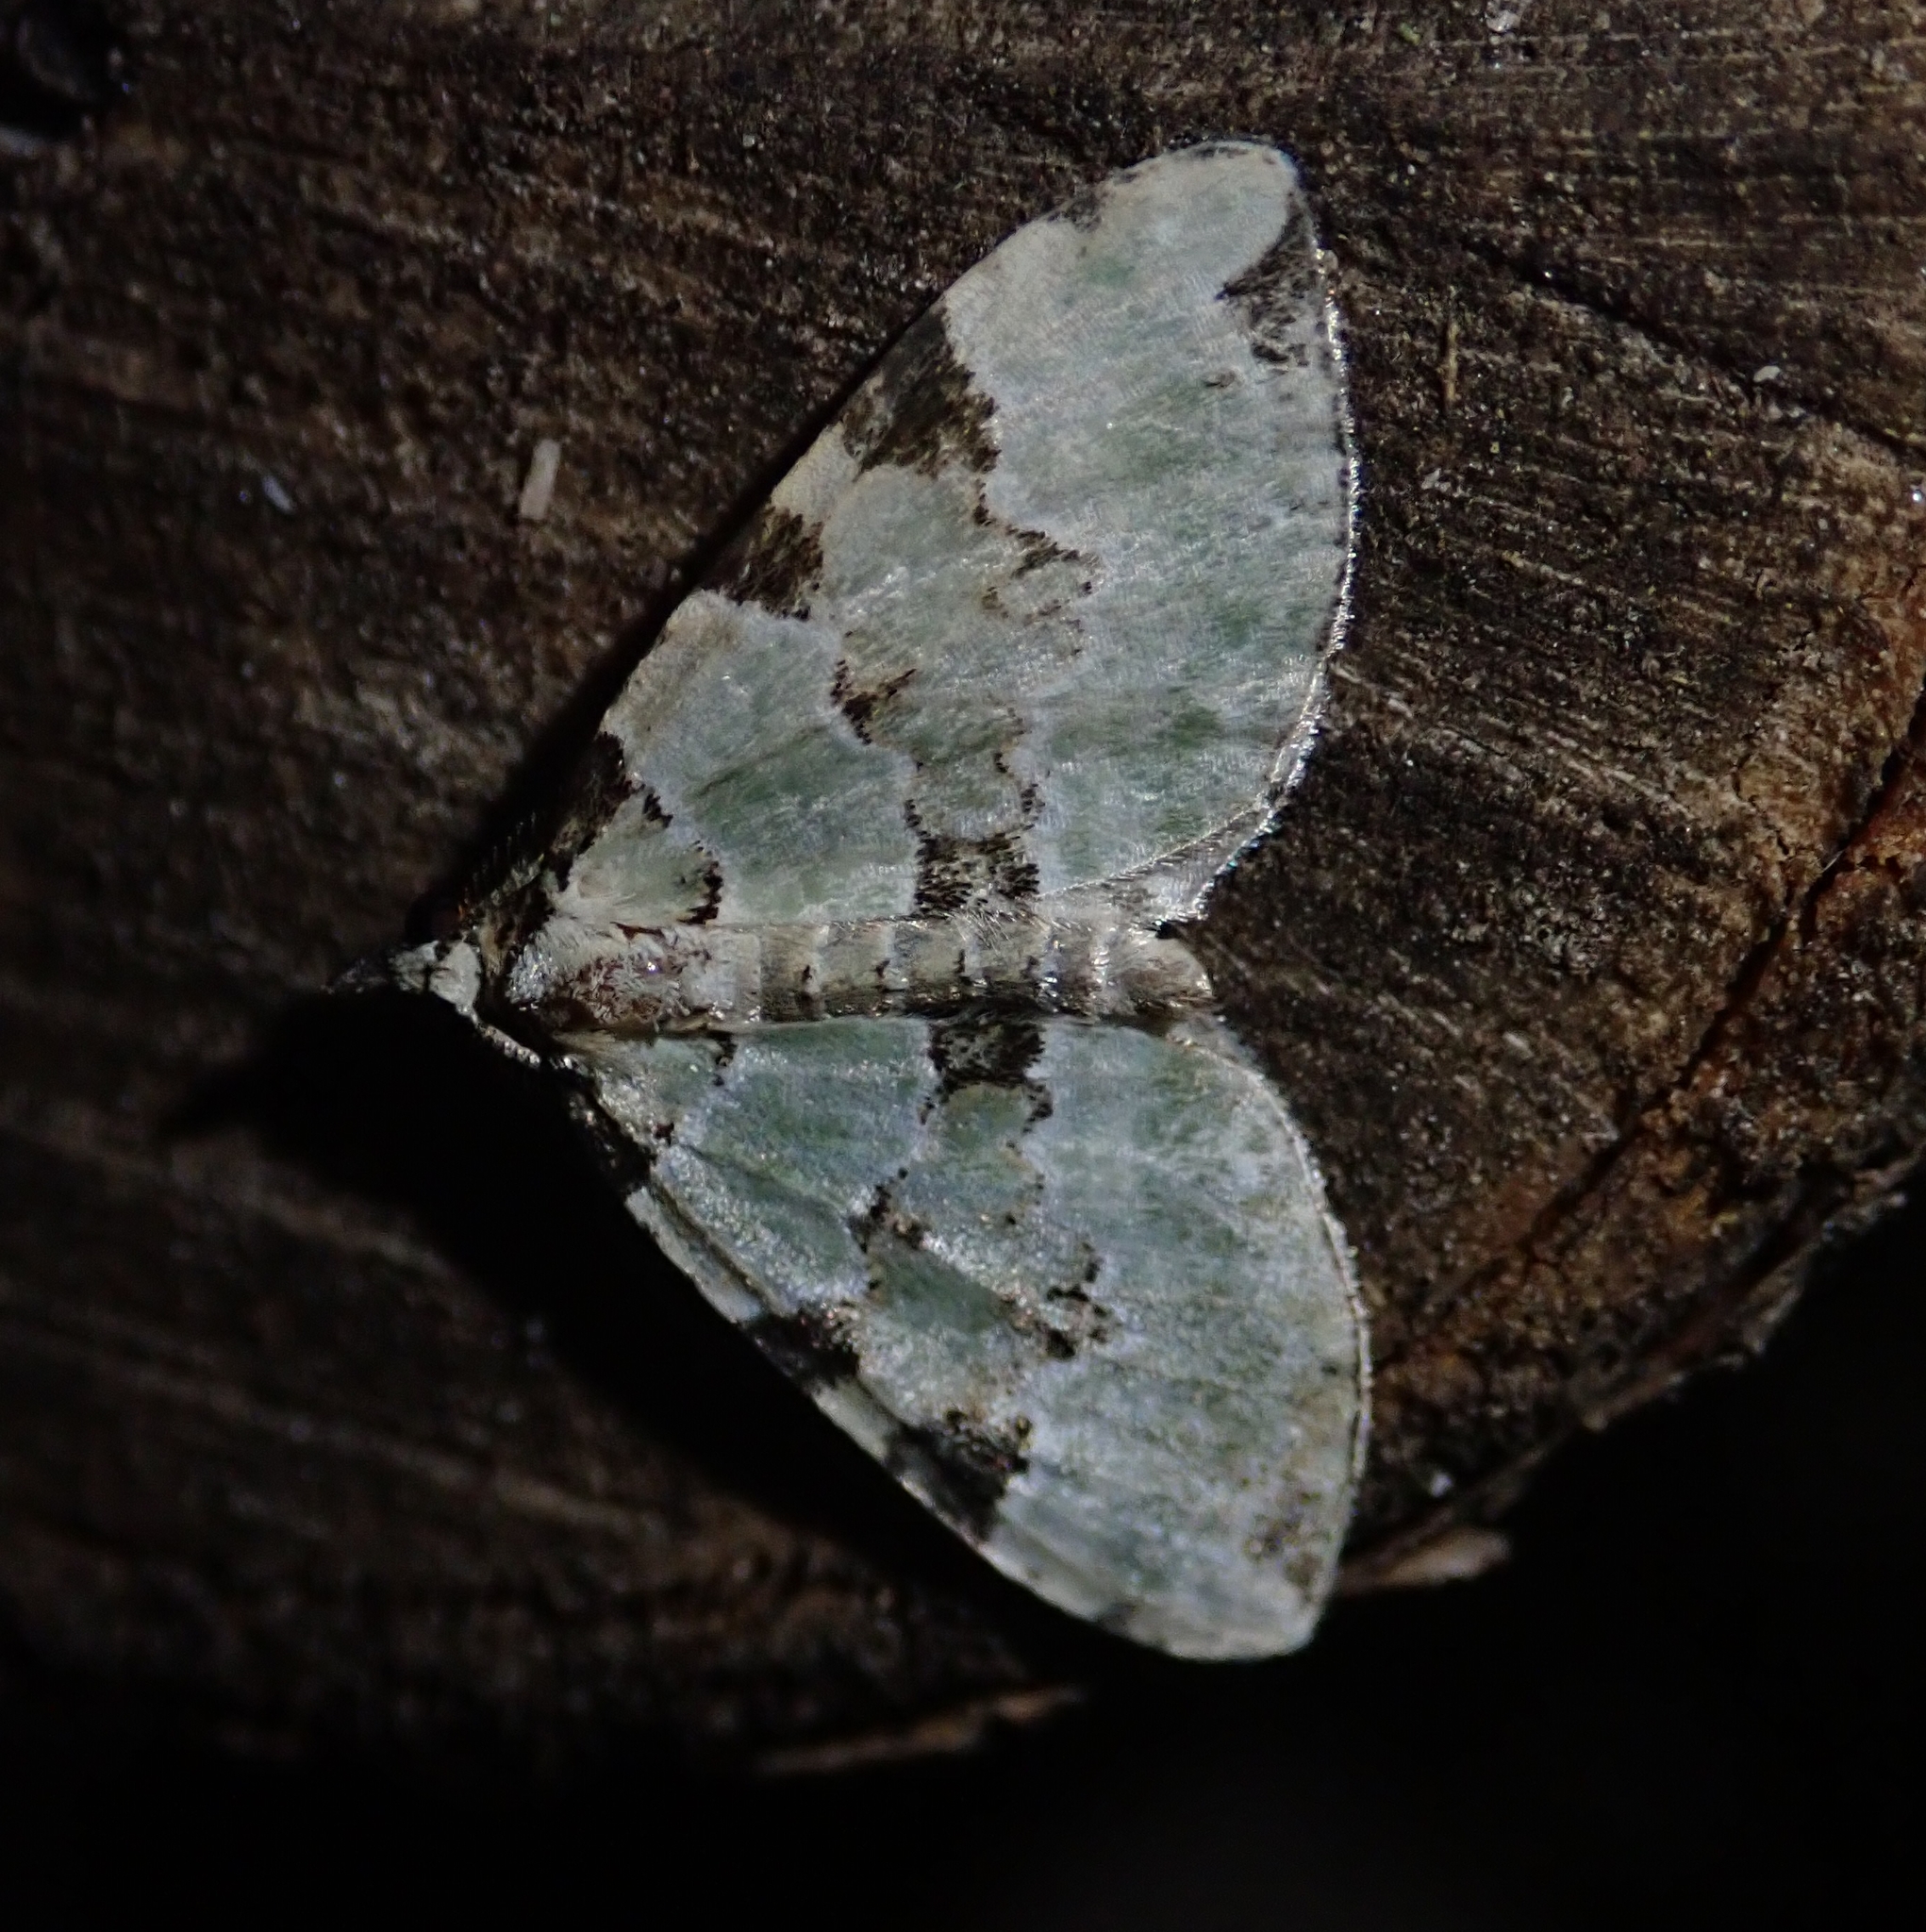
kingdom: Animalia
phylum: Arthropoda
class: Insecta
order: Lepidoptera
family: Geometridae
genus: Colostygia
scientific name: Colostygia pectinataria
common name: Green carpet
